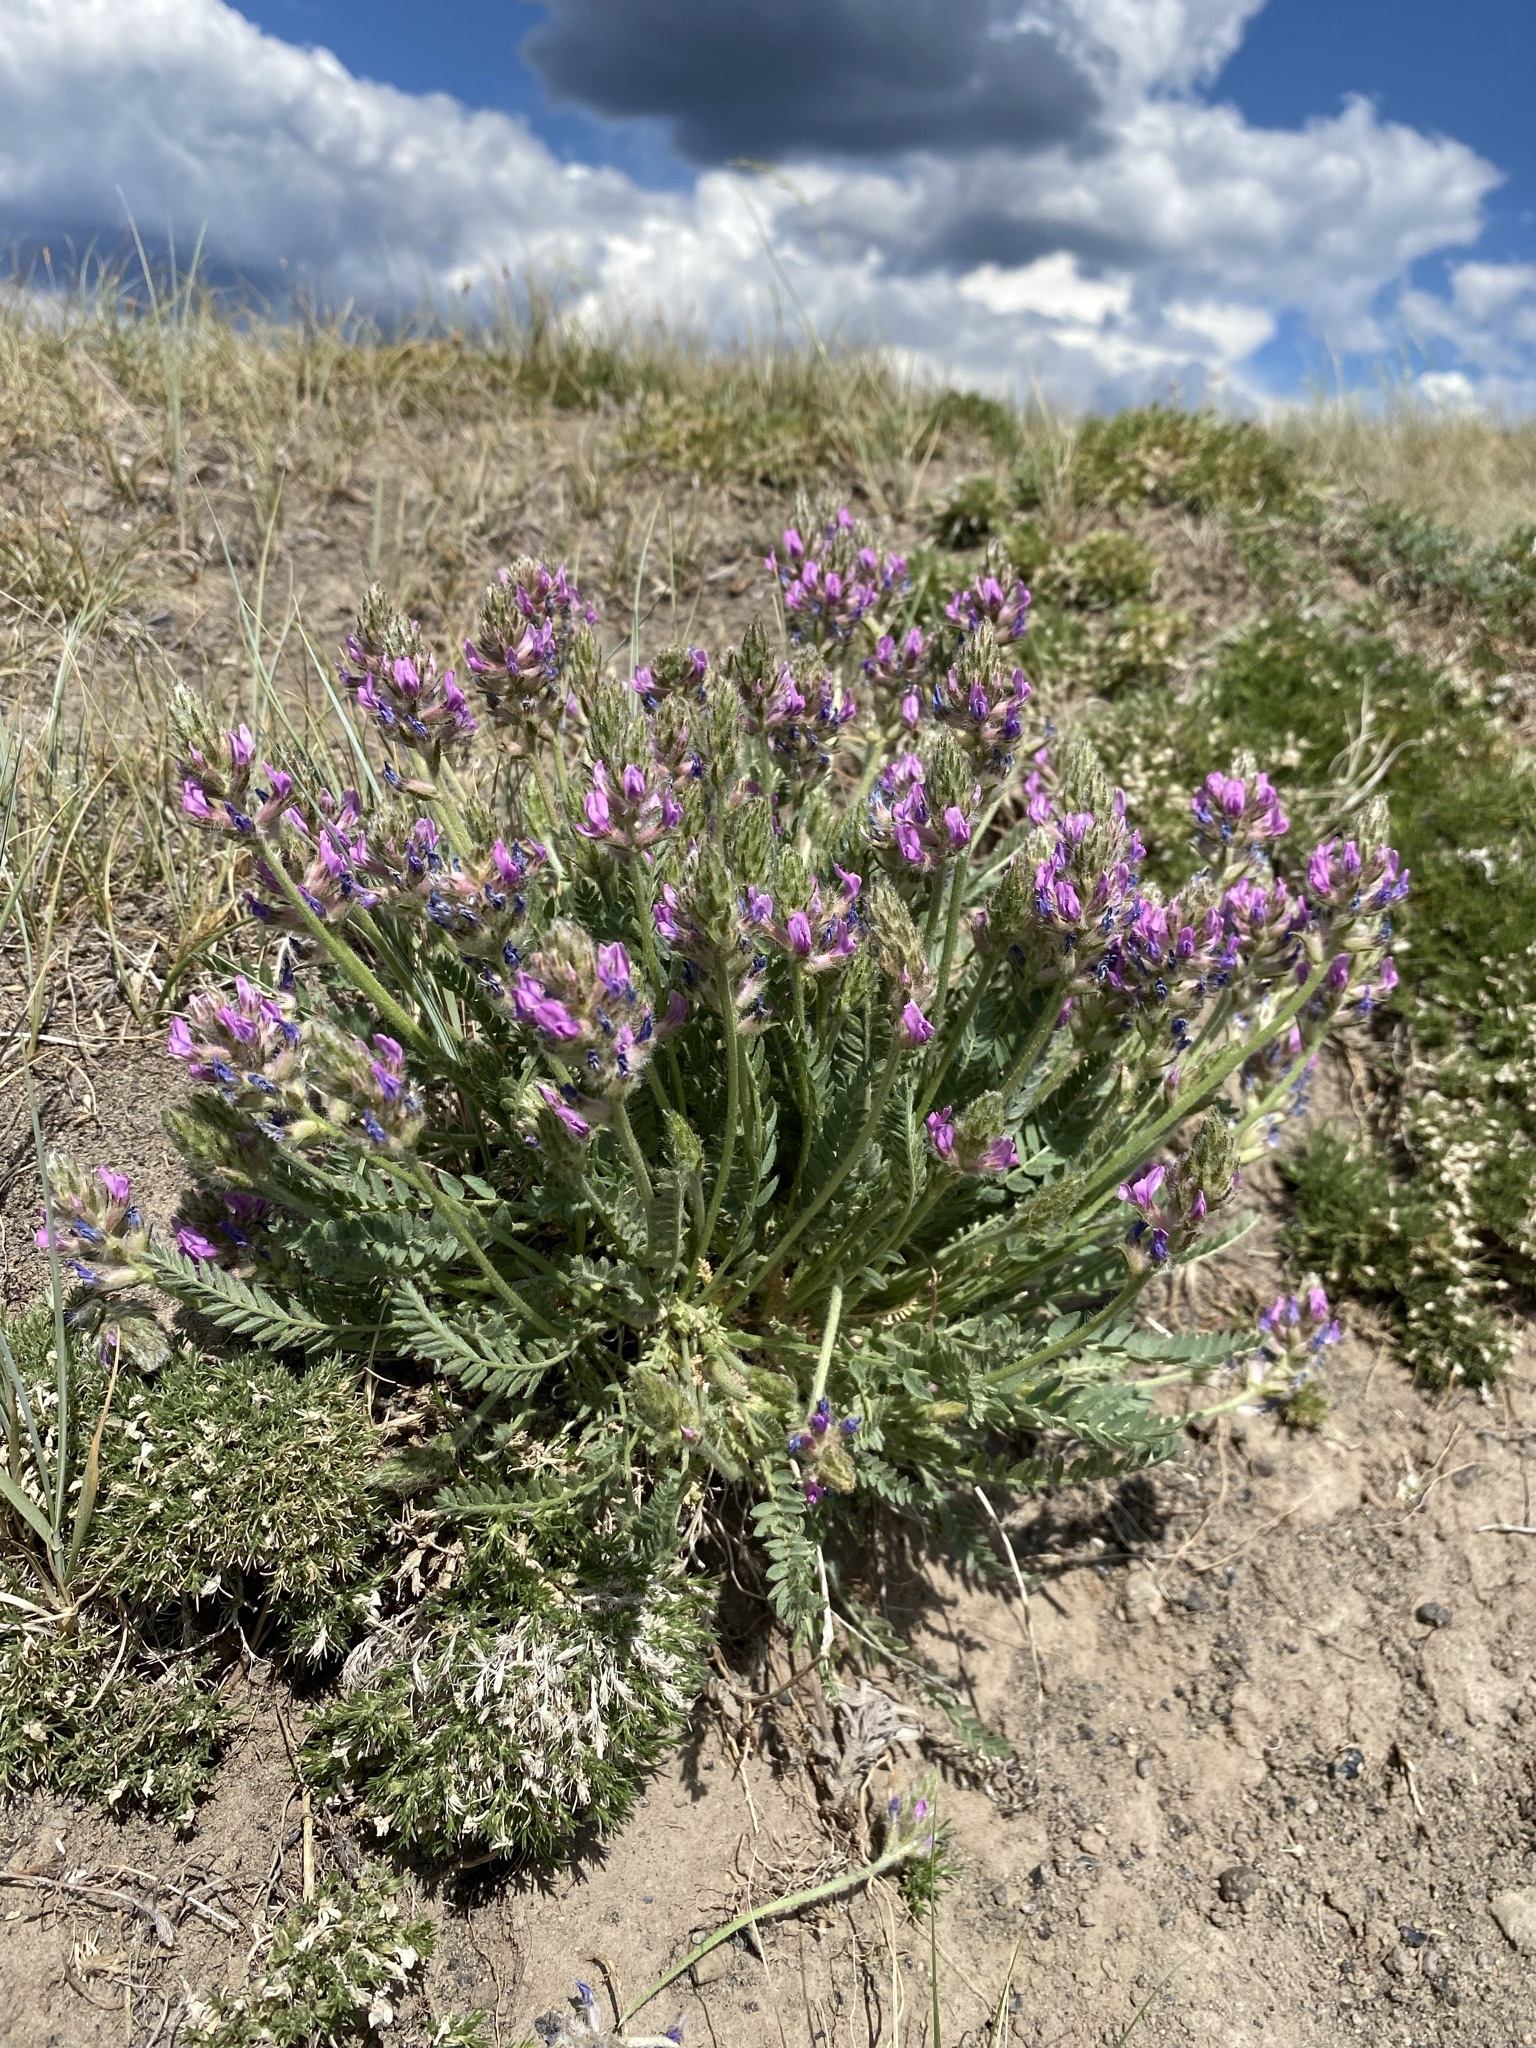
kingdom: Plantae
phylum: Tracheophyta
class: Magnoliopsida
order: Fabales
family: Fabaceae
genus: Oxytropis
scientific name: Oxytropis borealis
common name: Boreal locoweed
